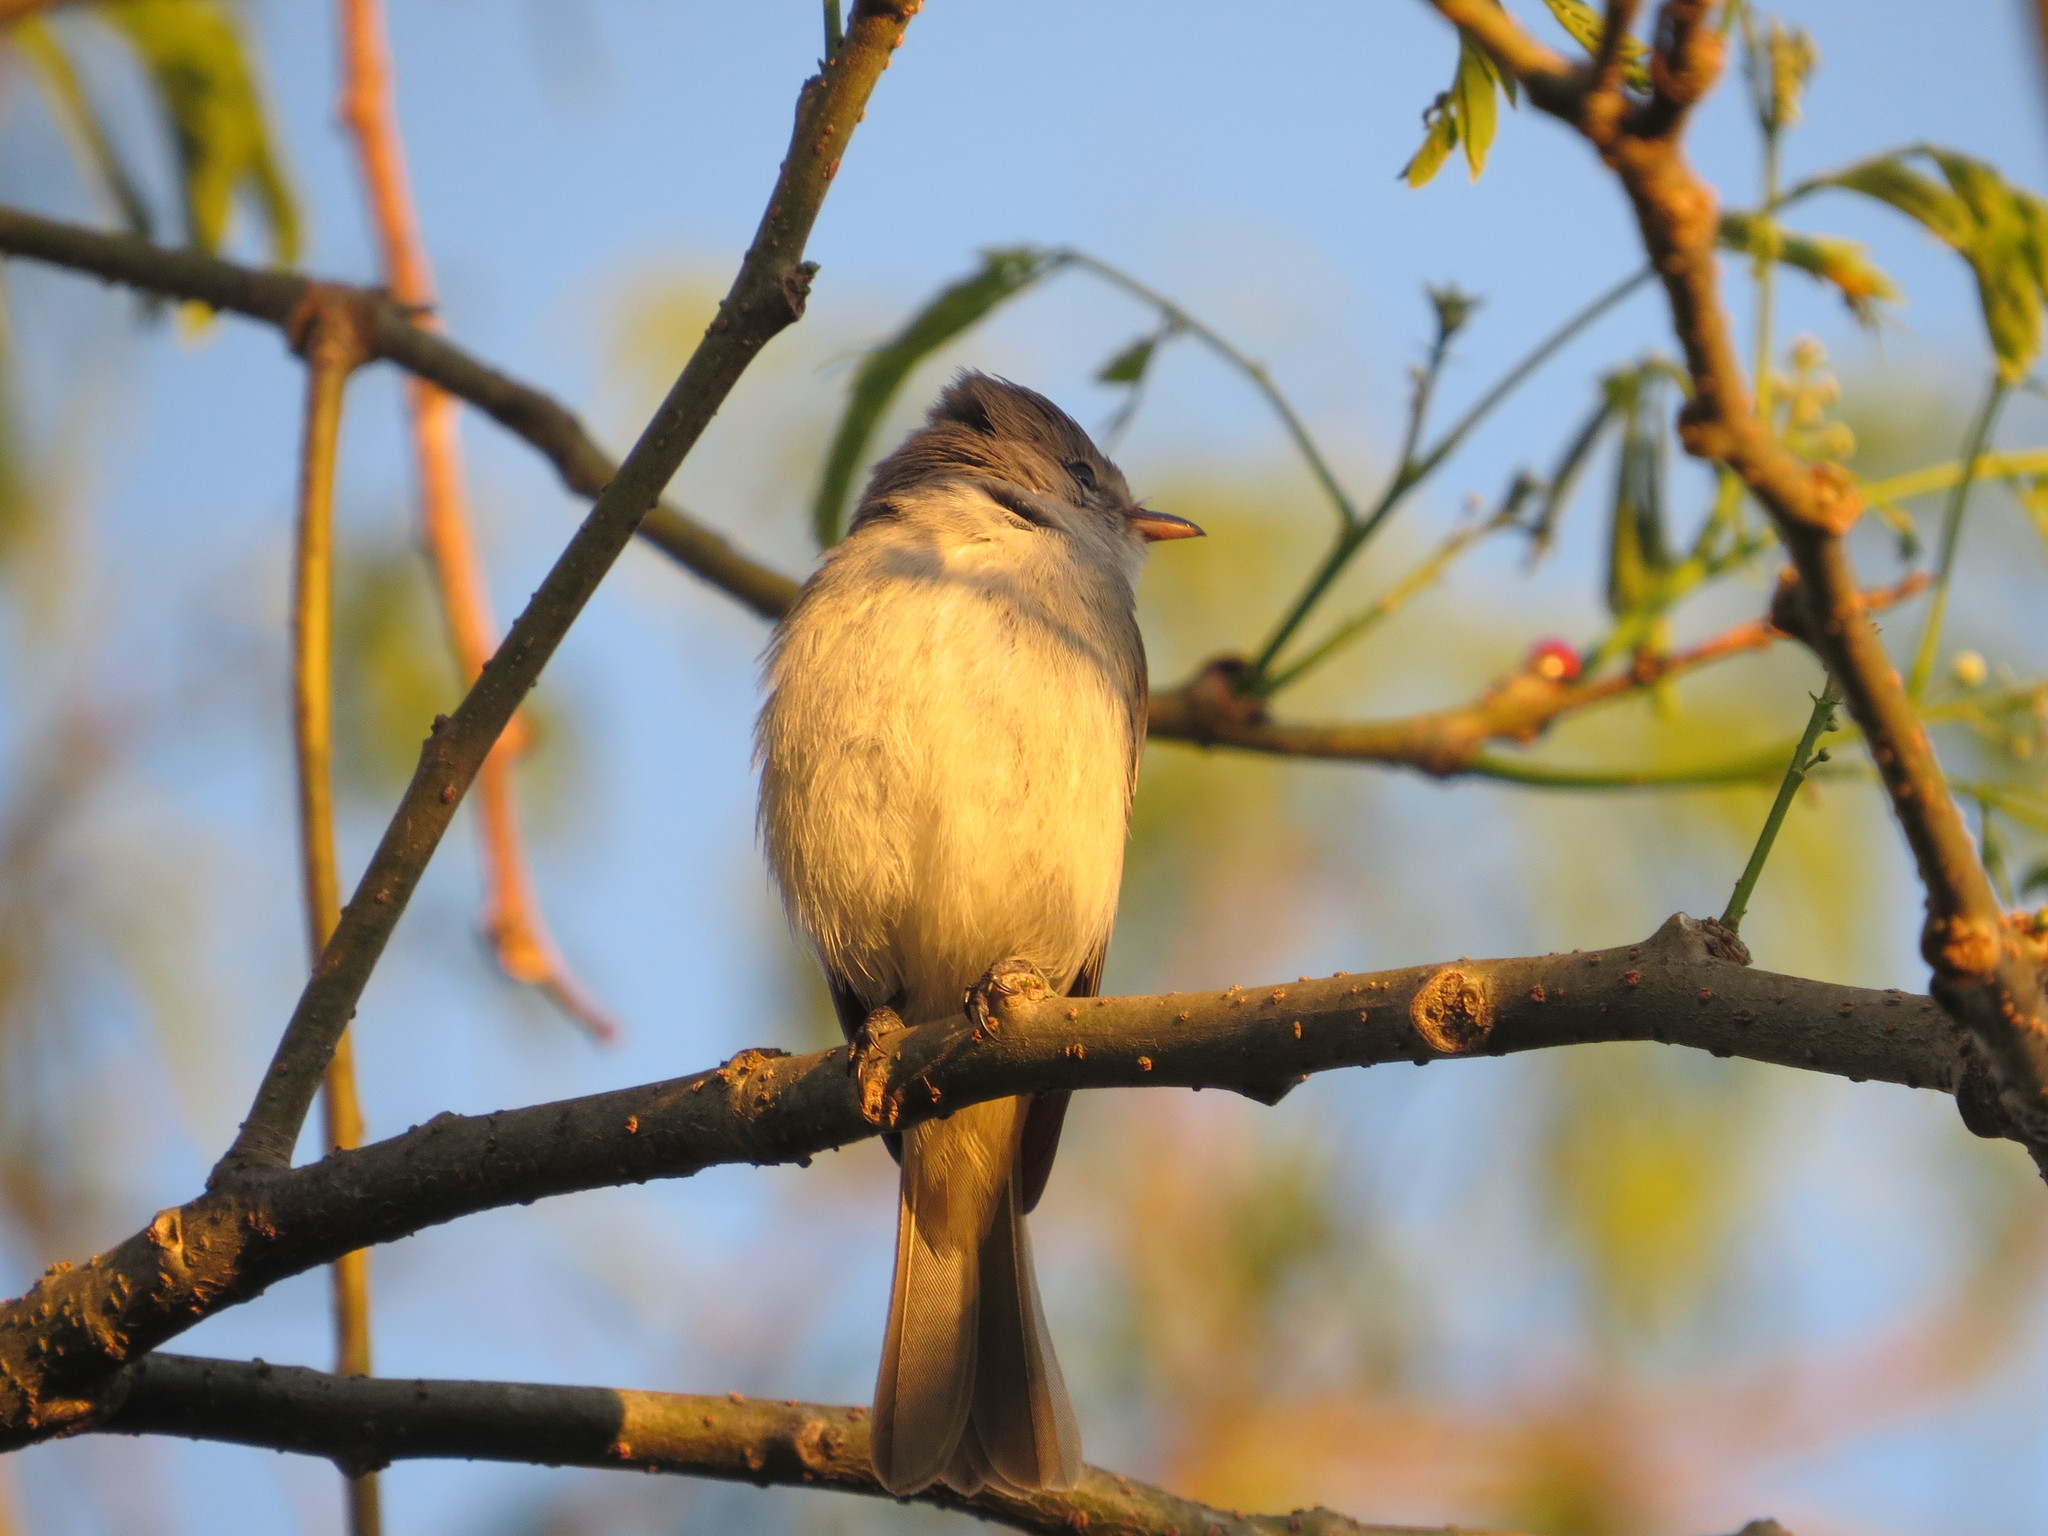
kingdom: Animalia
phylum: Chordata
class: Aves
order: Passeriformes
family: Tyrannidae
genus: Camptostoma
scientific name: Camptostoma obsoletum
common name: Southern beardless-tyrannulet
